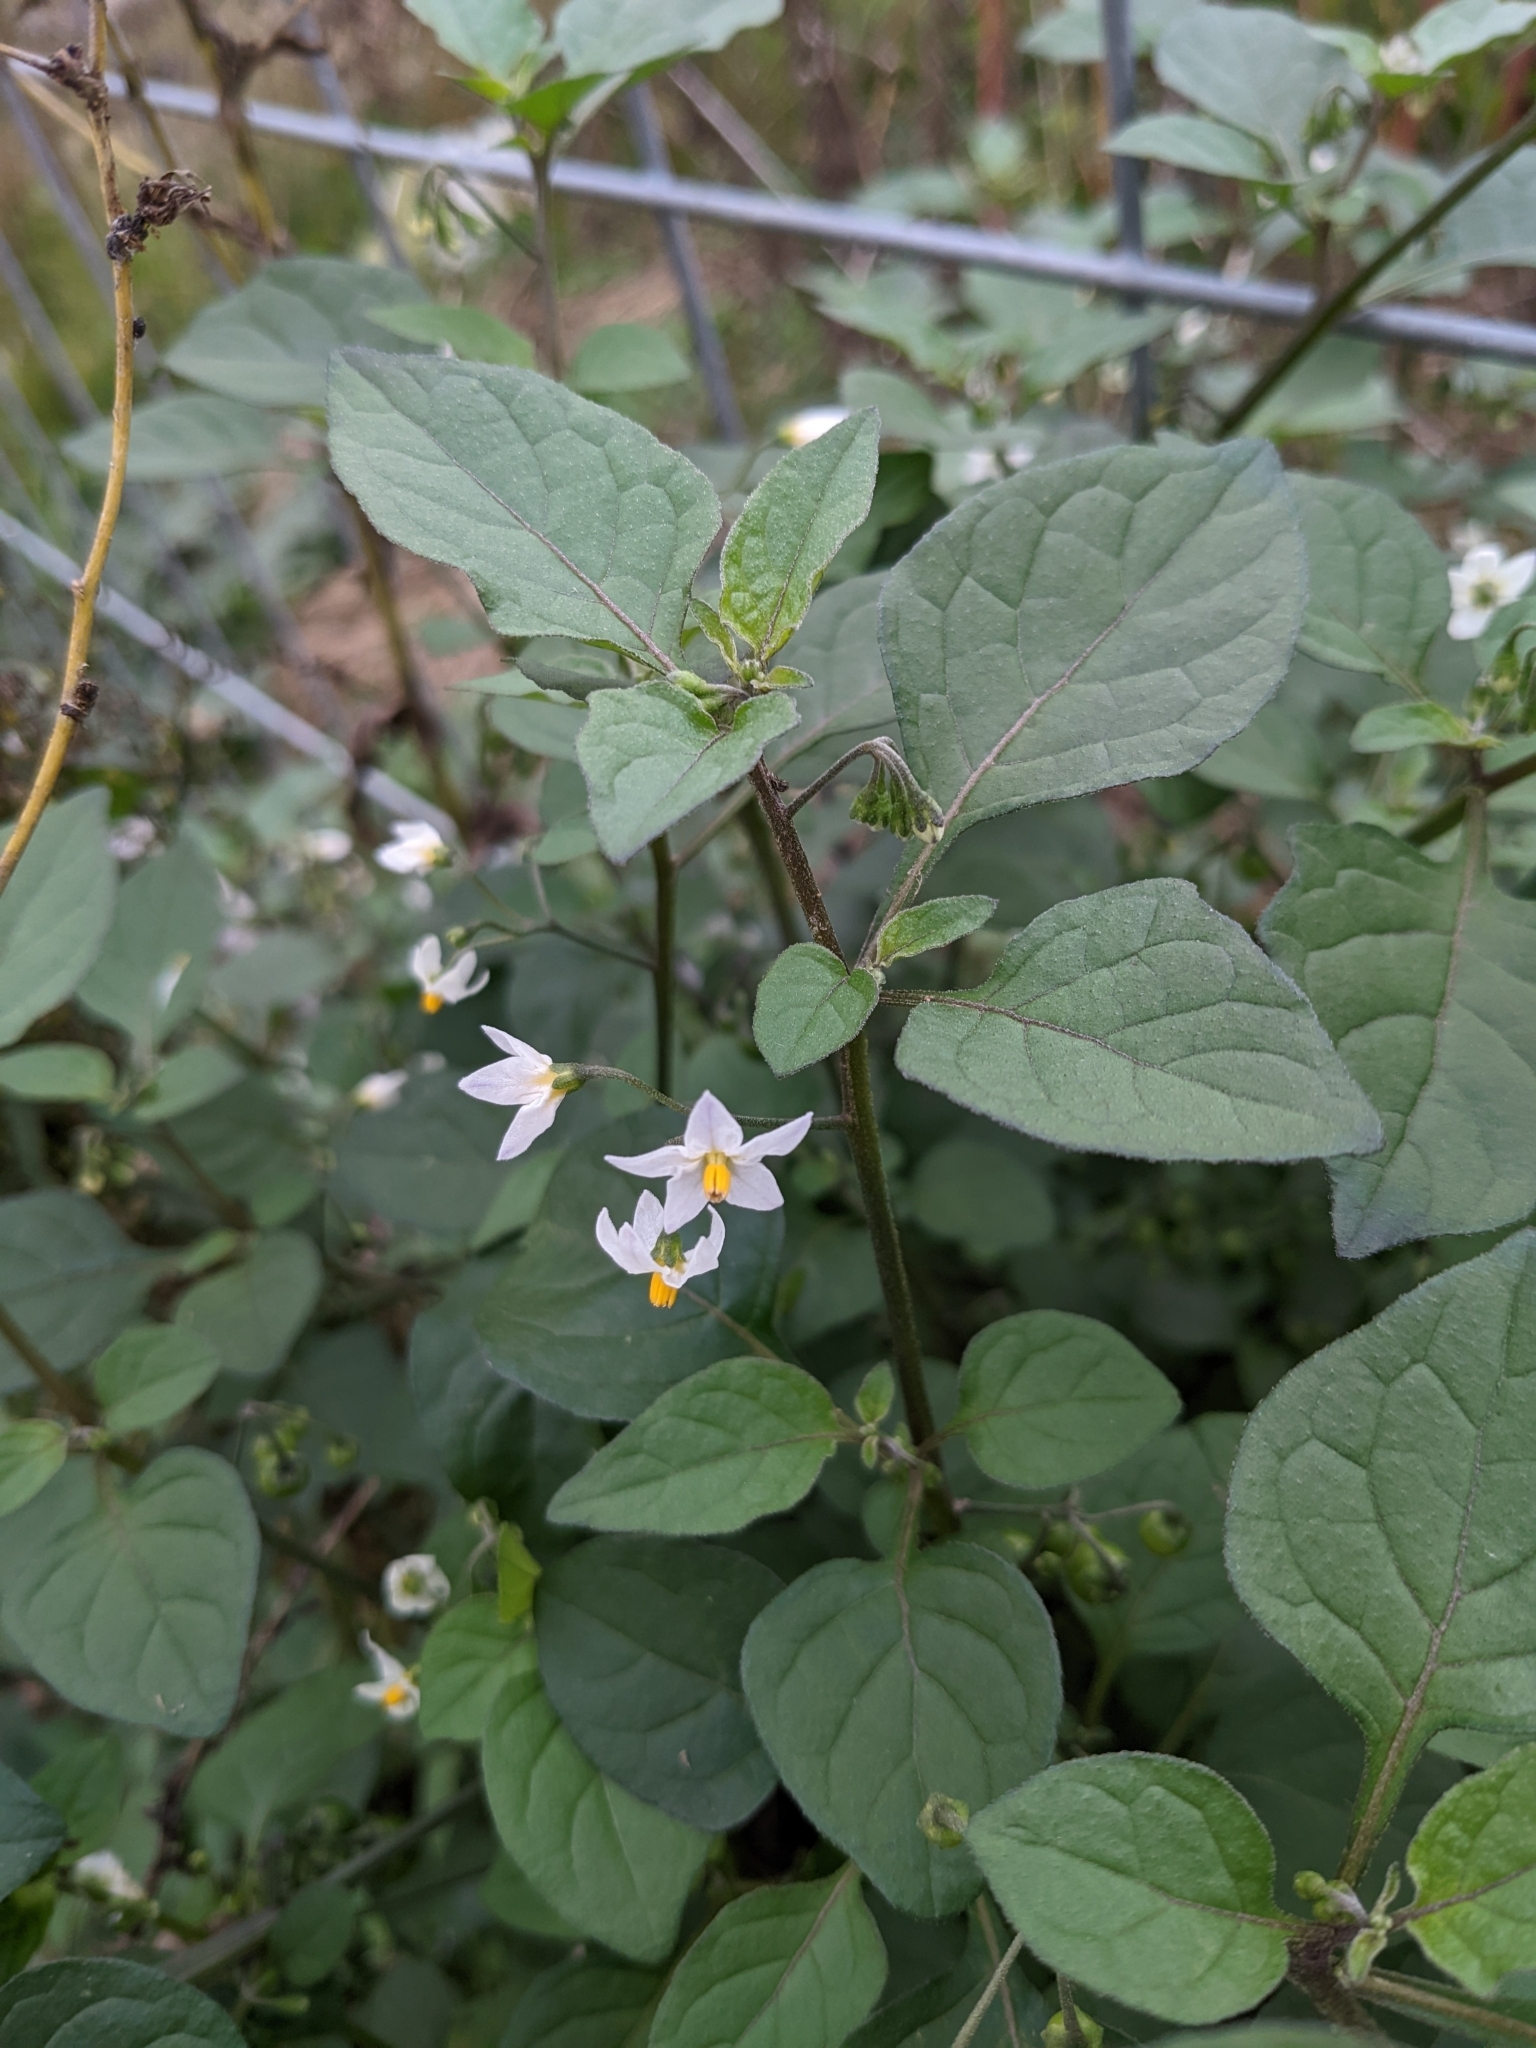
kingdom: Plantae
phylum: Tracheophyta
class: Magnoliopsida
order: Solanales
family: Solanaceae
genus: Solanum
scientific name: Solanum nigrum
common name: Black nightshade
